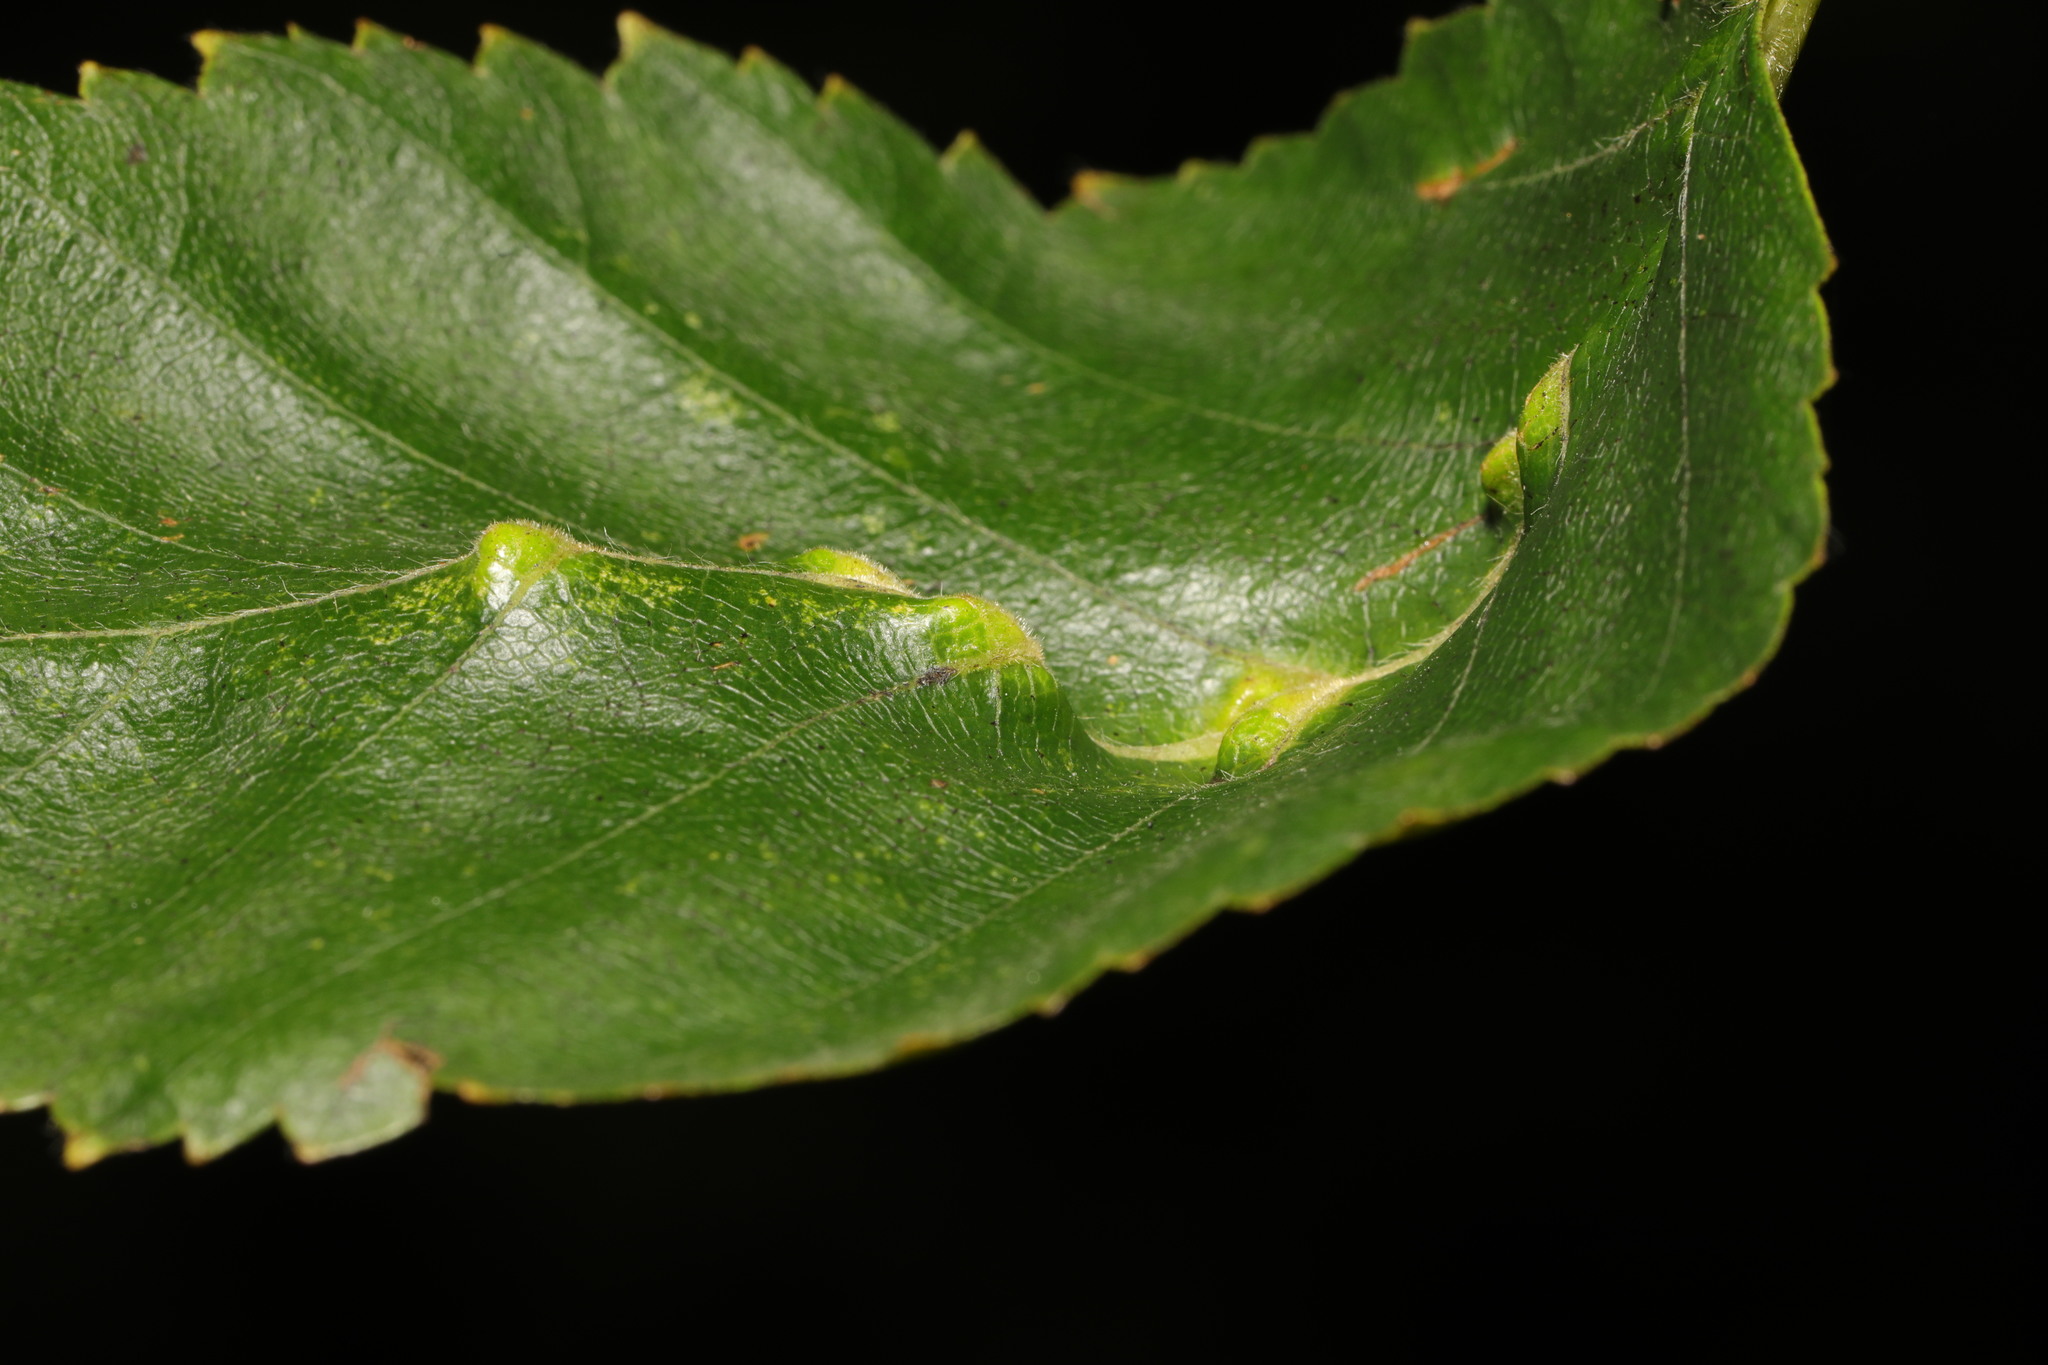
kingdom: Animalia
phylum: Arthropoda
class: Arachnida
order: Trombidiformes
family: Eriophyidae
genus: Aculus
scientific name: Aculus leionotus
